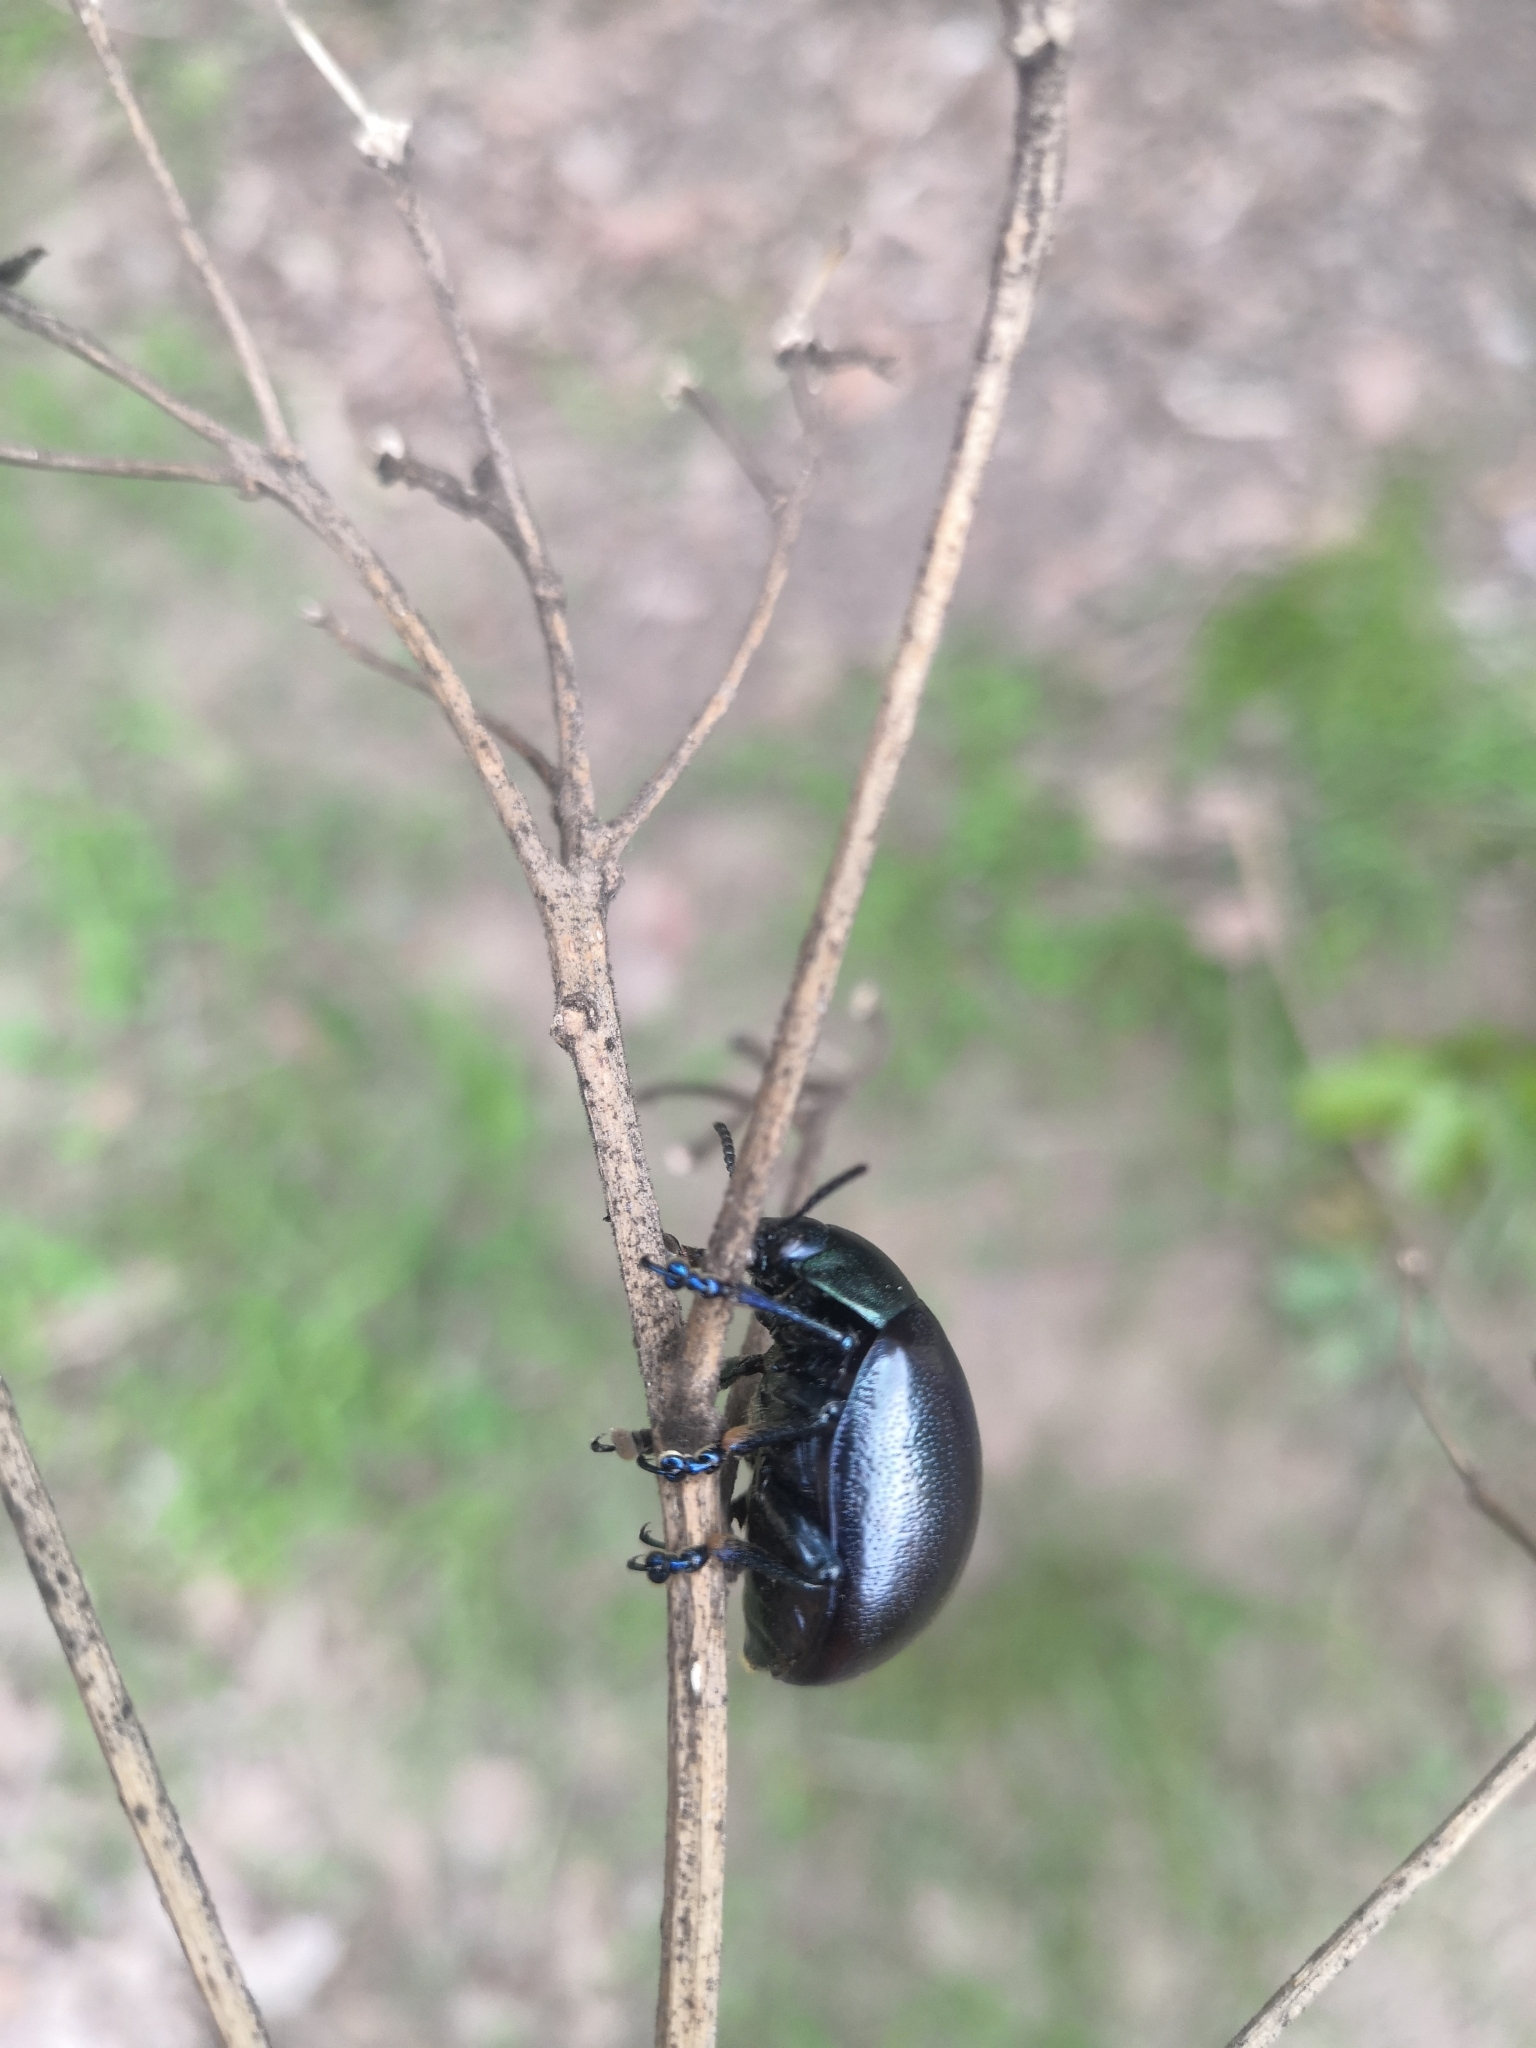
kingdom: Animalia
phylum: Arthropoda
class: Insecta
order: Coleoptera
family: Chrysomelidae
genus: Leptinotarsa
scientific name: Leptinotarsa behrensi
